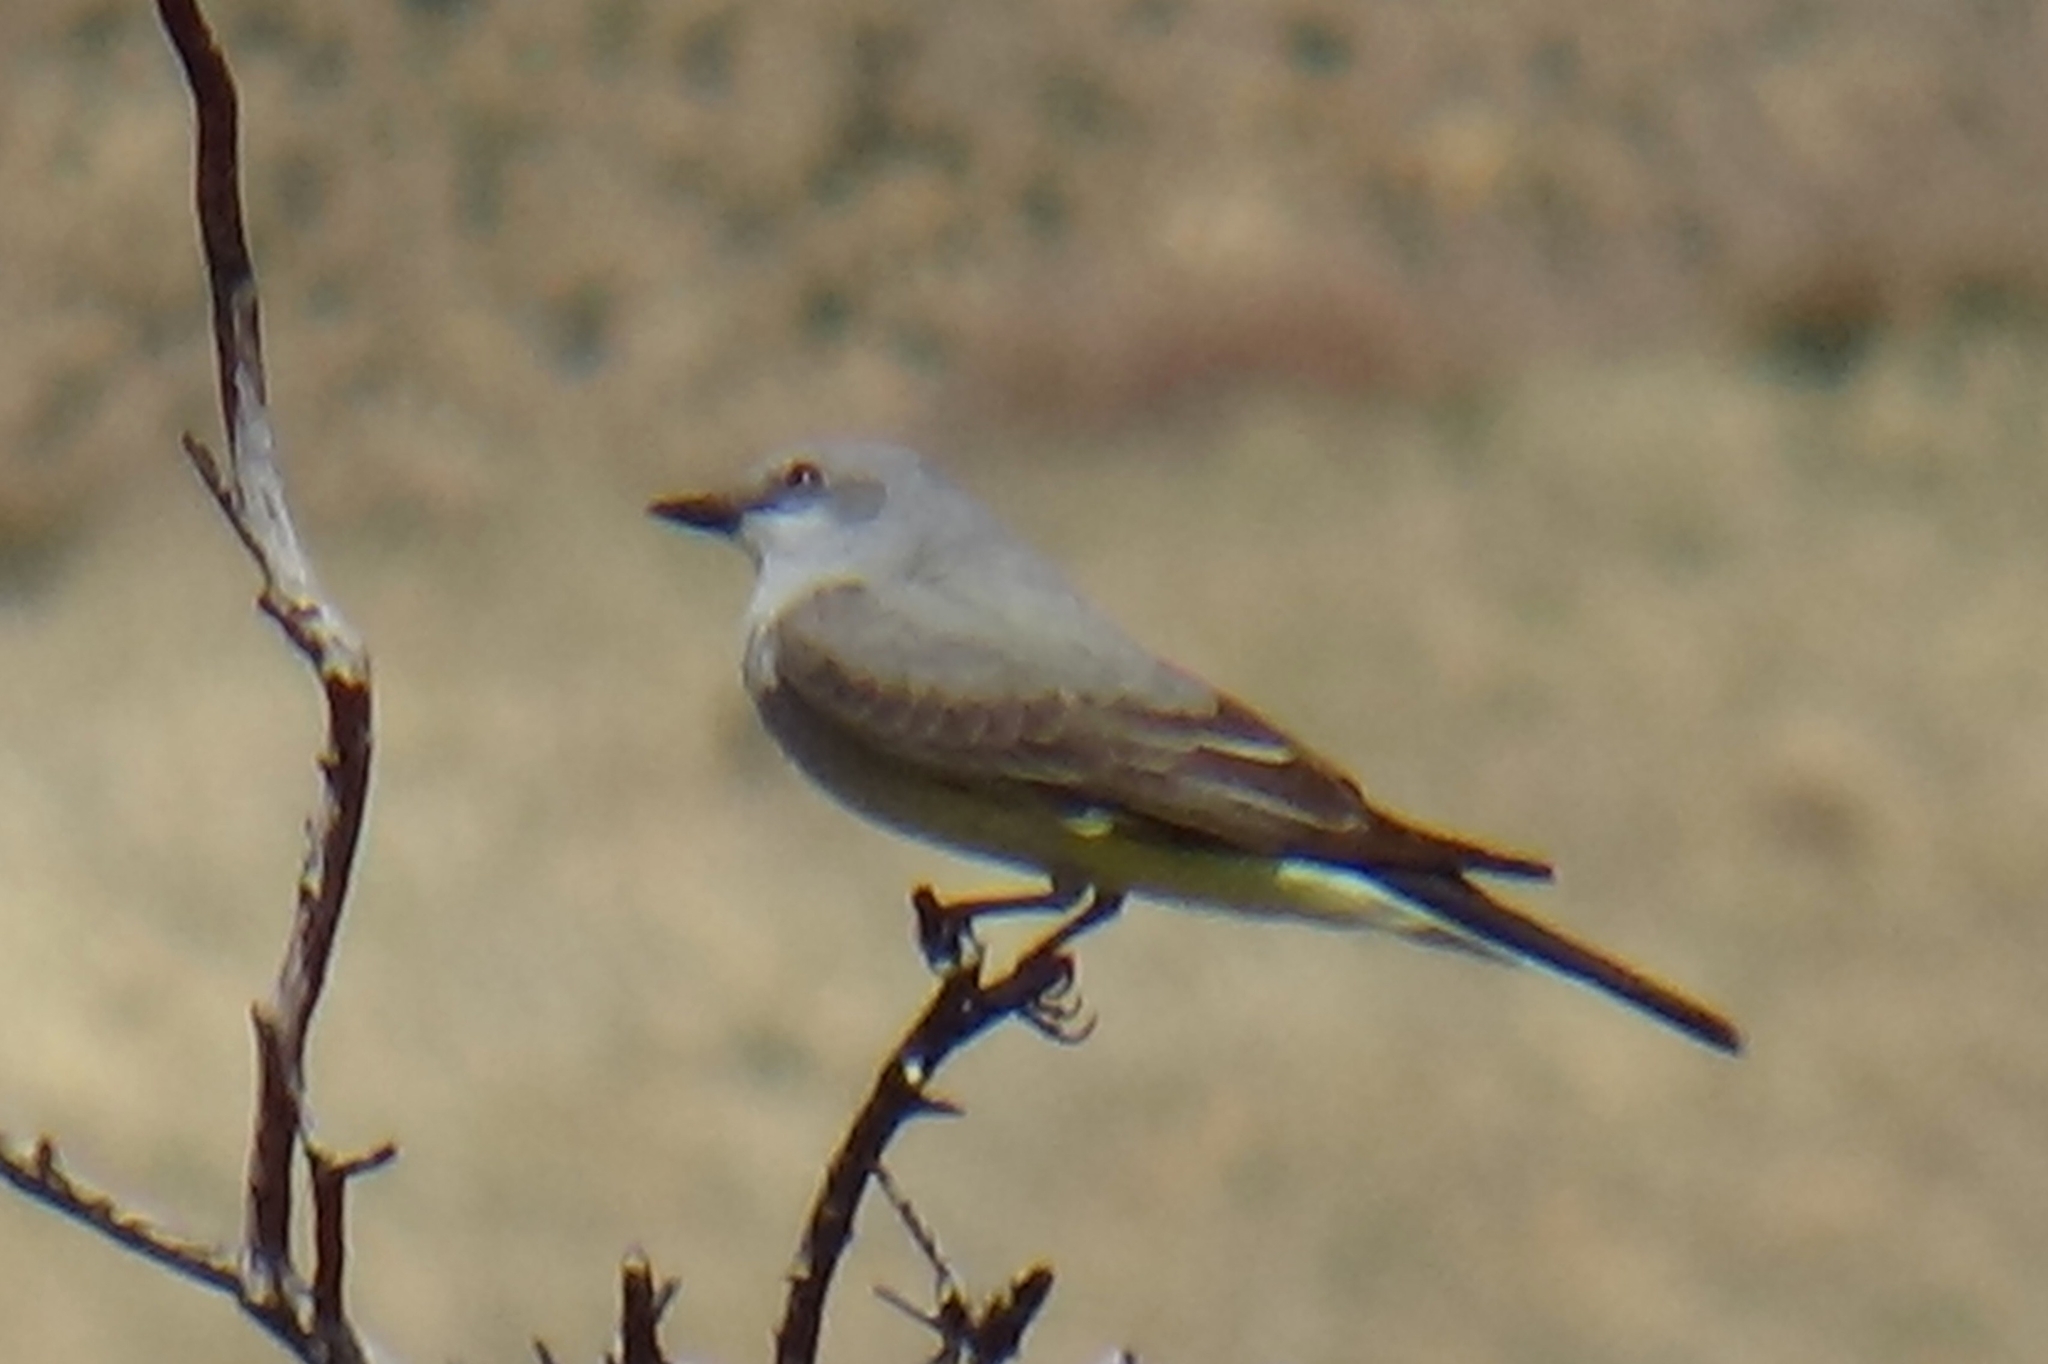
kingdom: Animalia
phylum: Chordata
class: Aves
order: Passeriformes
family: Tyrannidae
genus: Tyrannus
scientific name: Tyrannus verticalis
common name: Western kingbird
